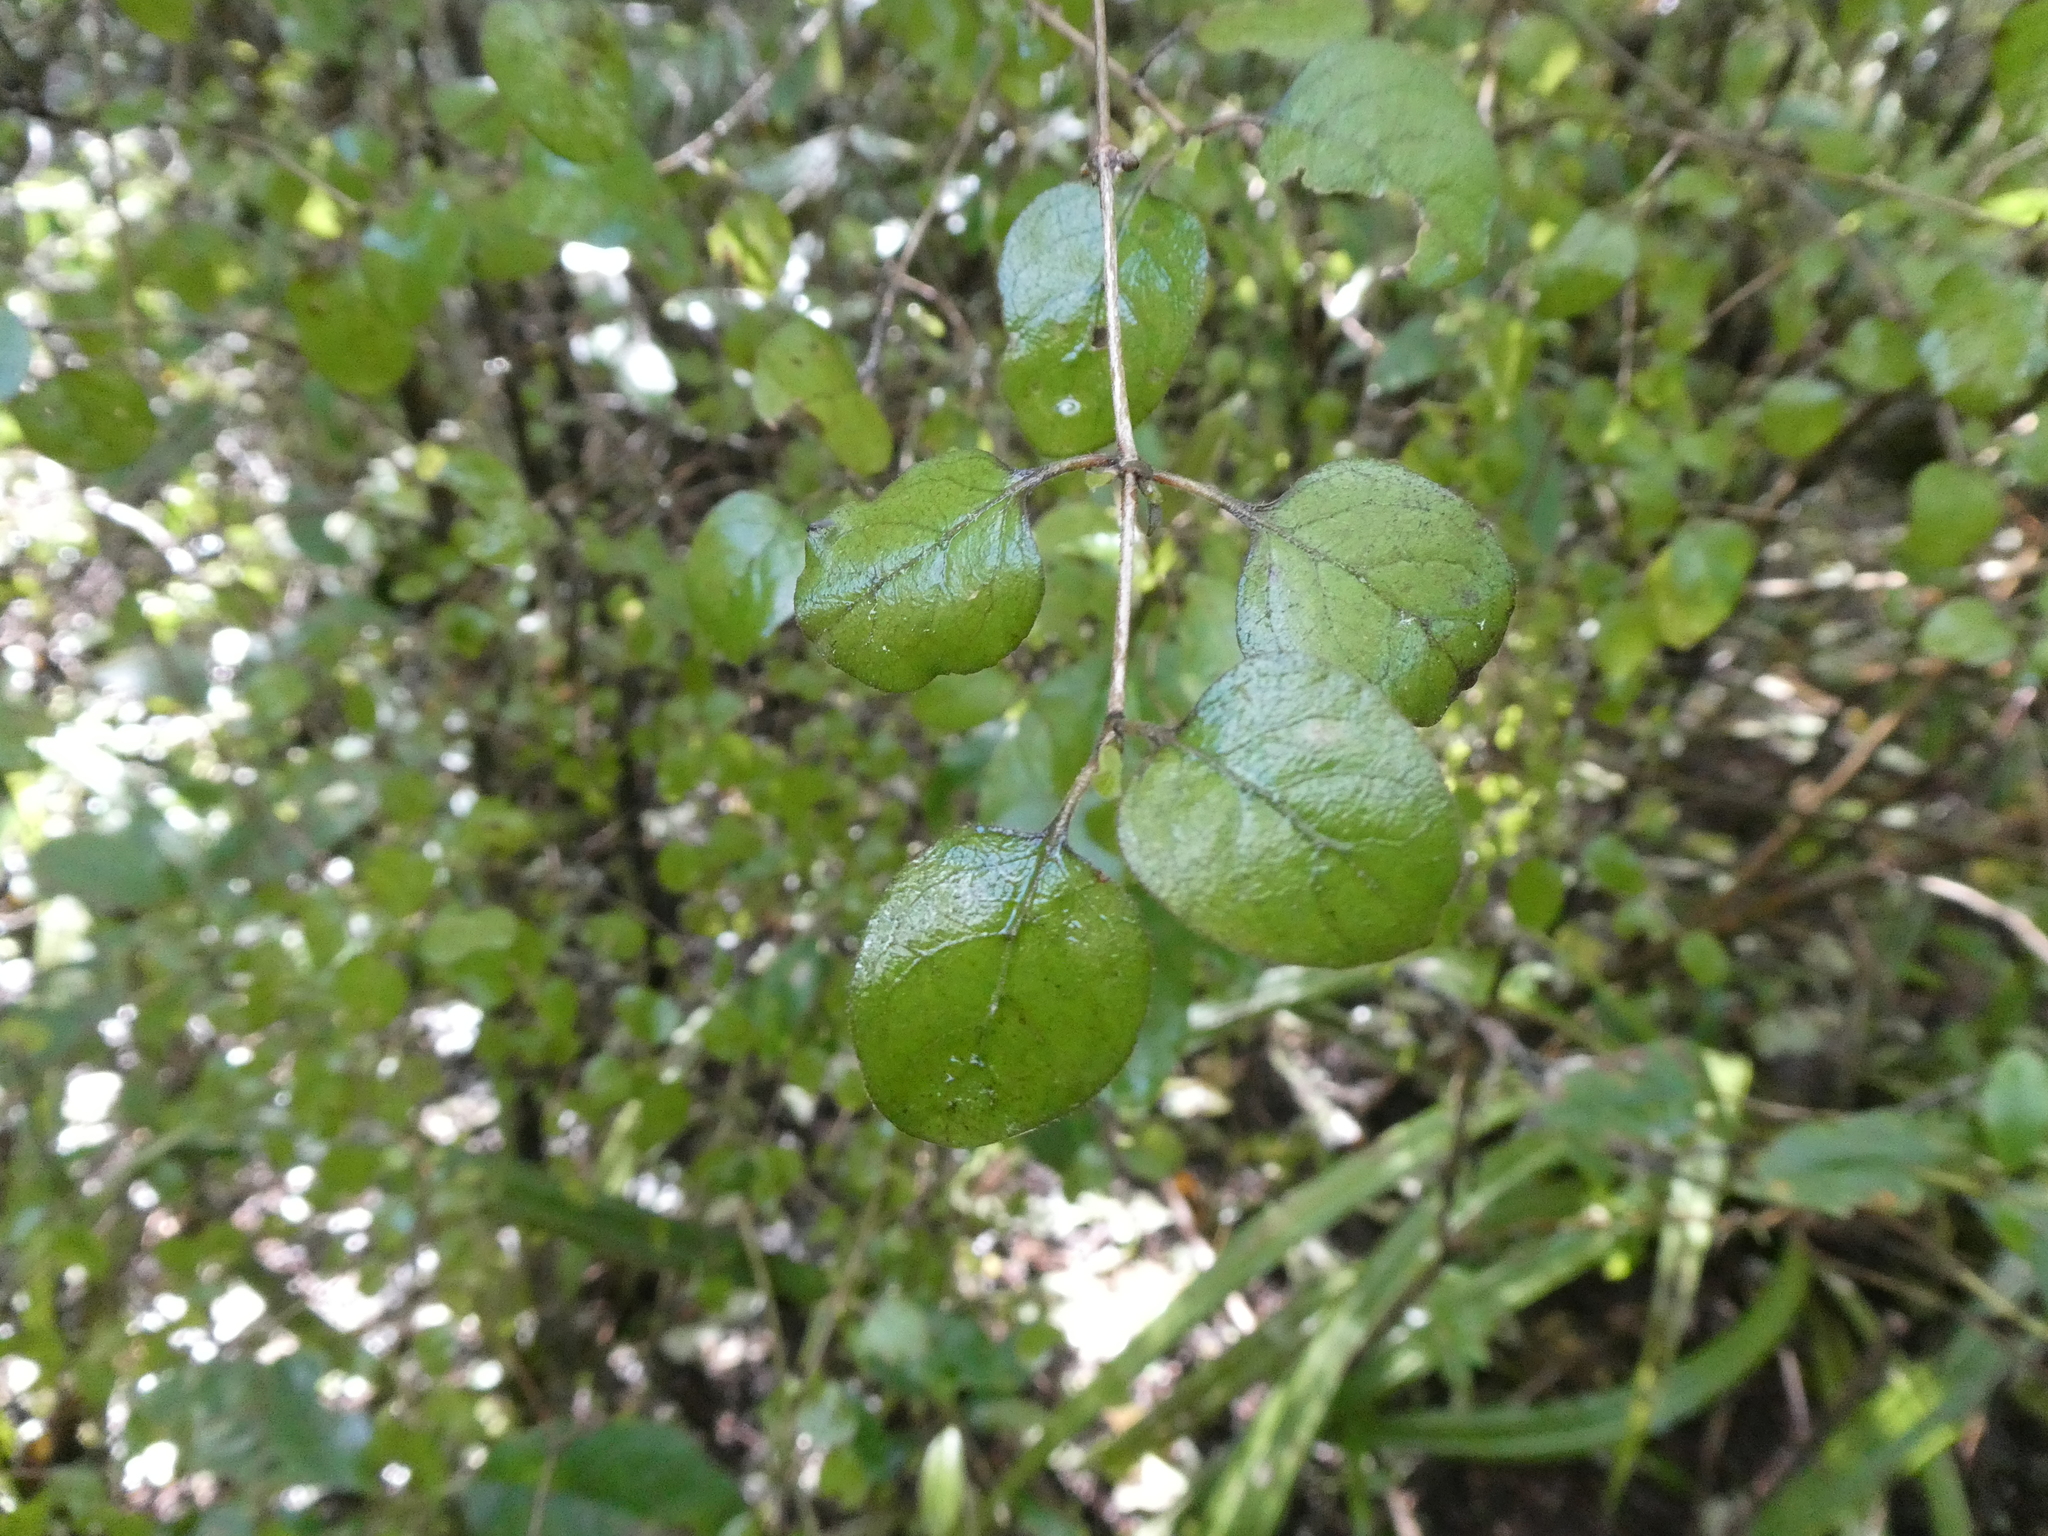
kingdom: Plantae
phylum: Tracheophyta
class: Magnoliopsida
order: Gentianales
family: Rubiaceae
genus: Coprosma
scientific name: Coprosma rotundifolia
